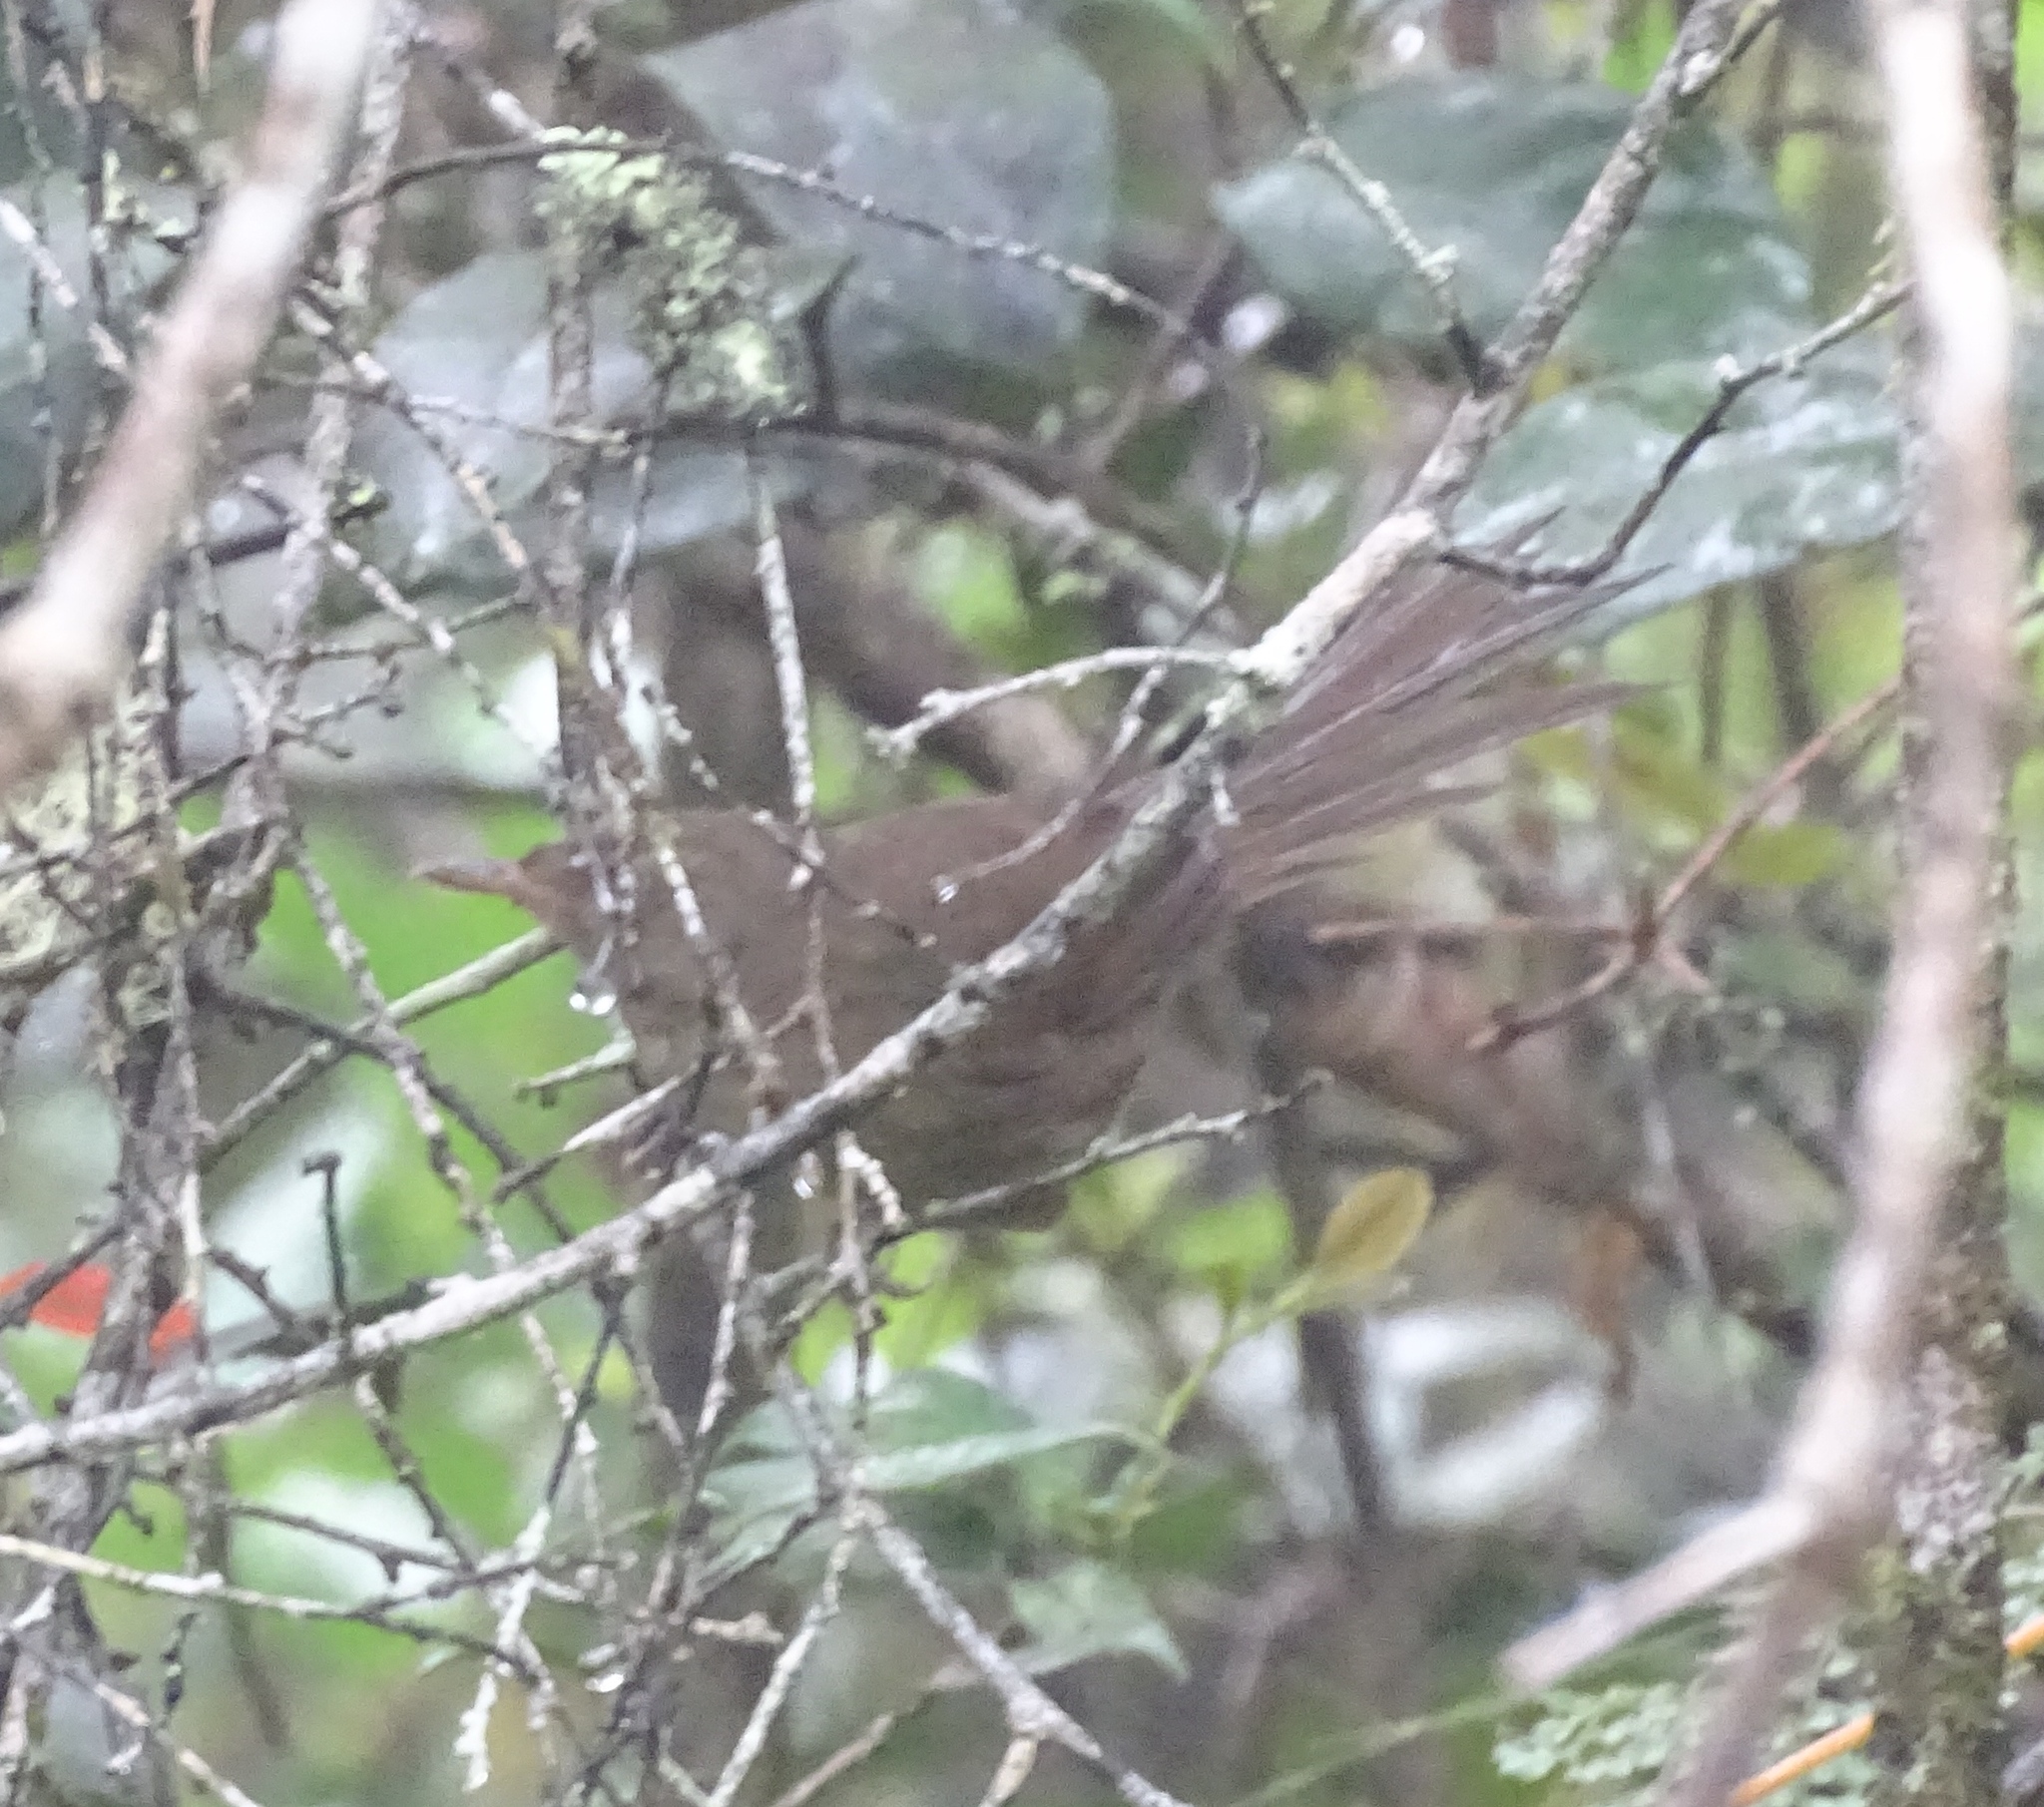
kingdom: Animalia
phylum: Chordata
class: Aves
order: Passeriformes
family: Acrocephalidae
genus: Nesillas
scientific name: Nesillas typica
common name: Malagasy brush warbler
